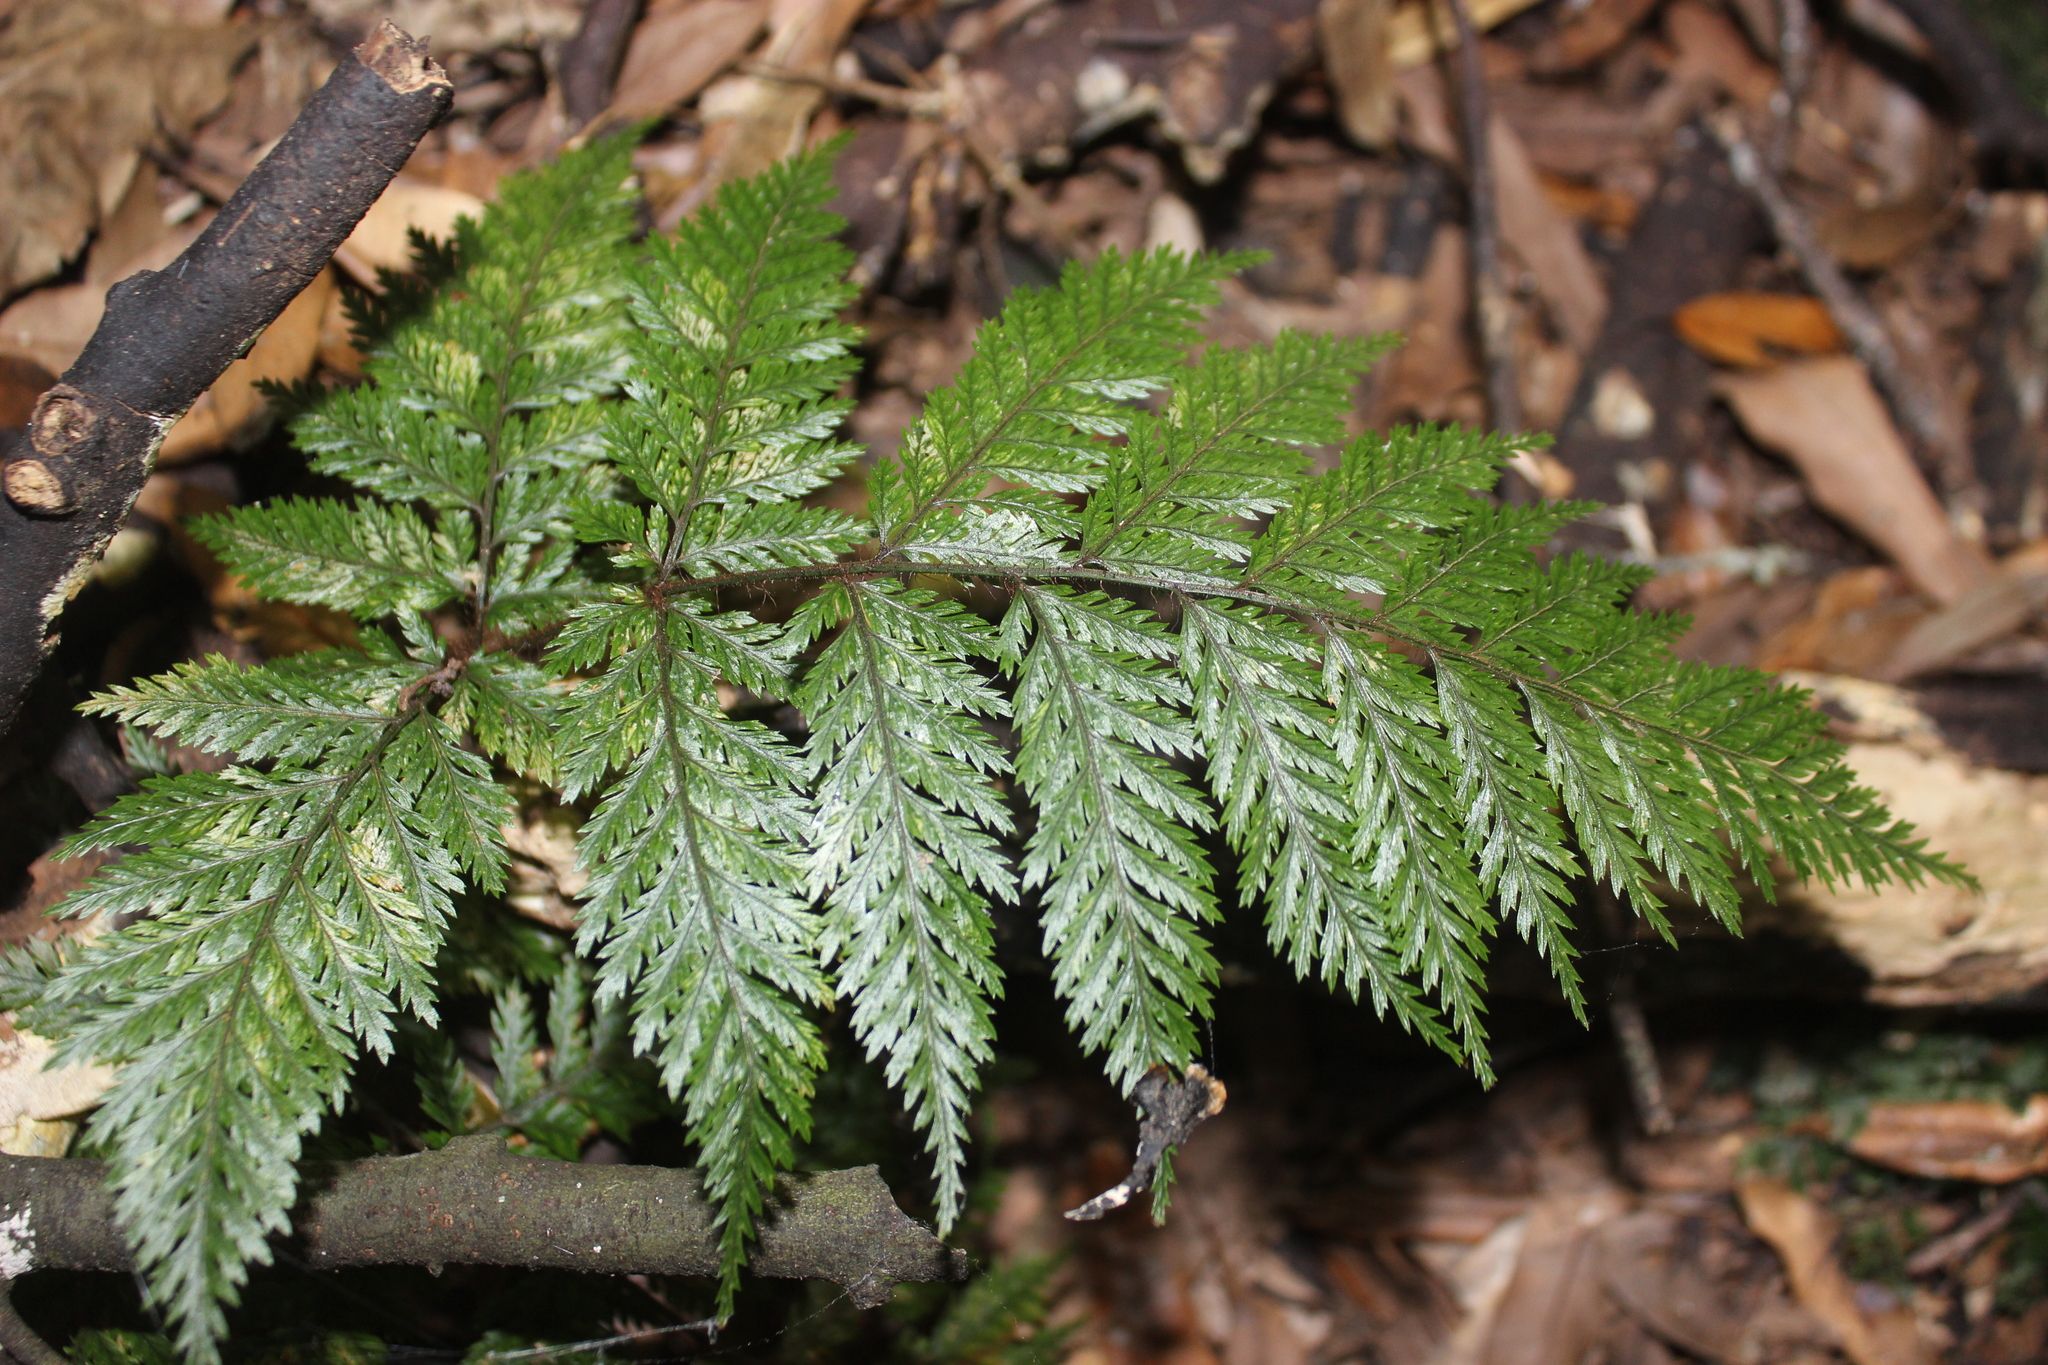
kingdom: Plantae
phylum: Tracheophyta
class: Polypodiopsida
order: Polypodiales
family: Dryopteridaceae
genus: Lastreopsis
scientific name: Lastreopsis hispida
